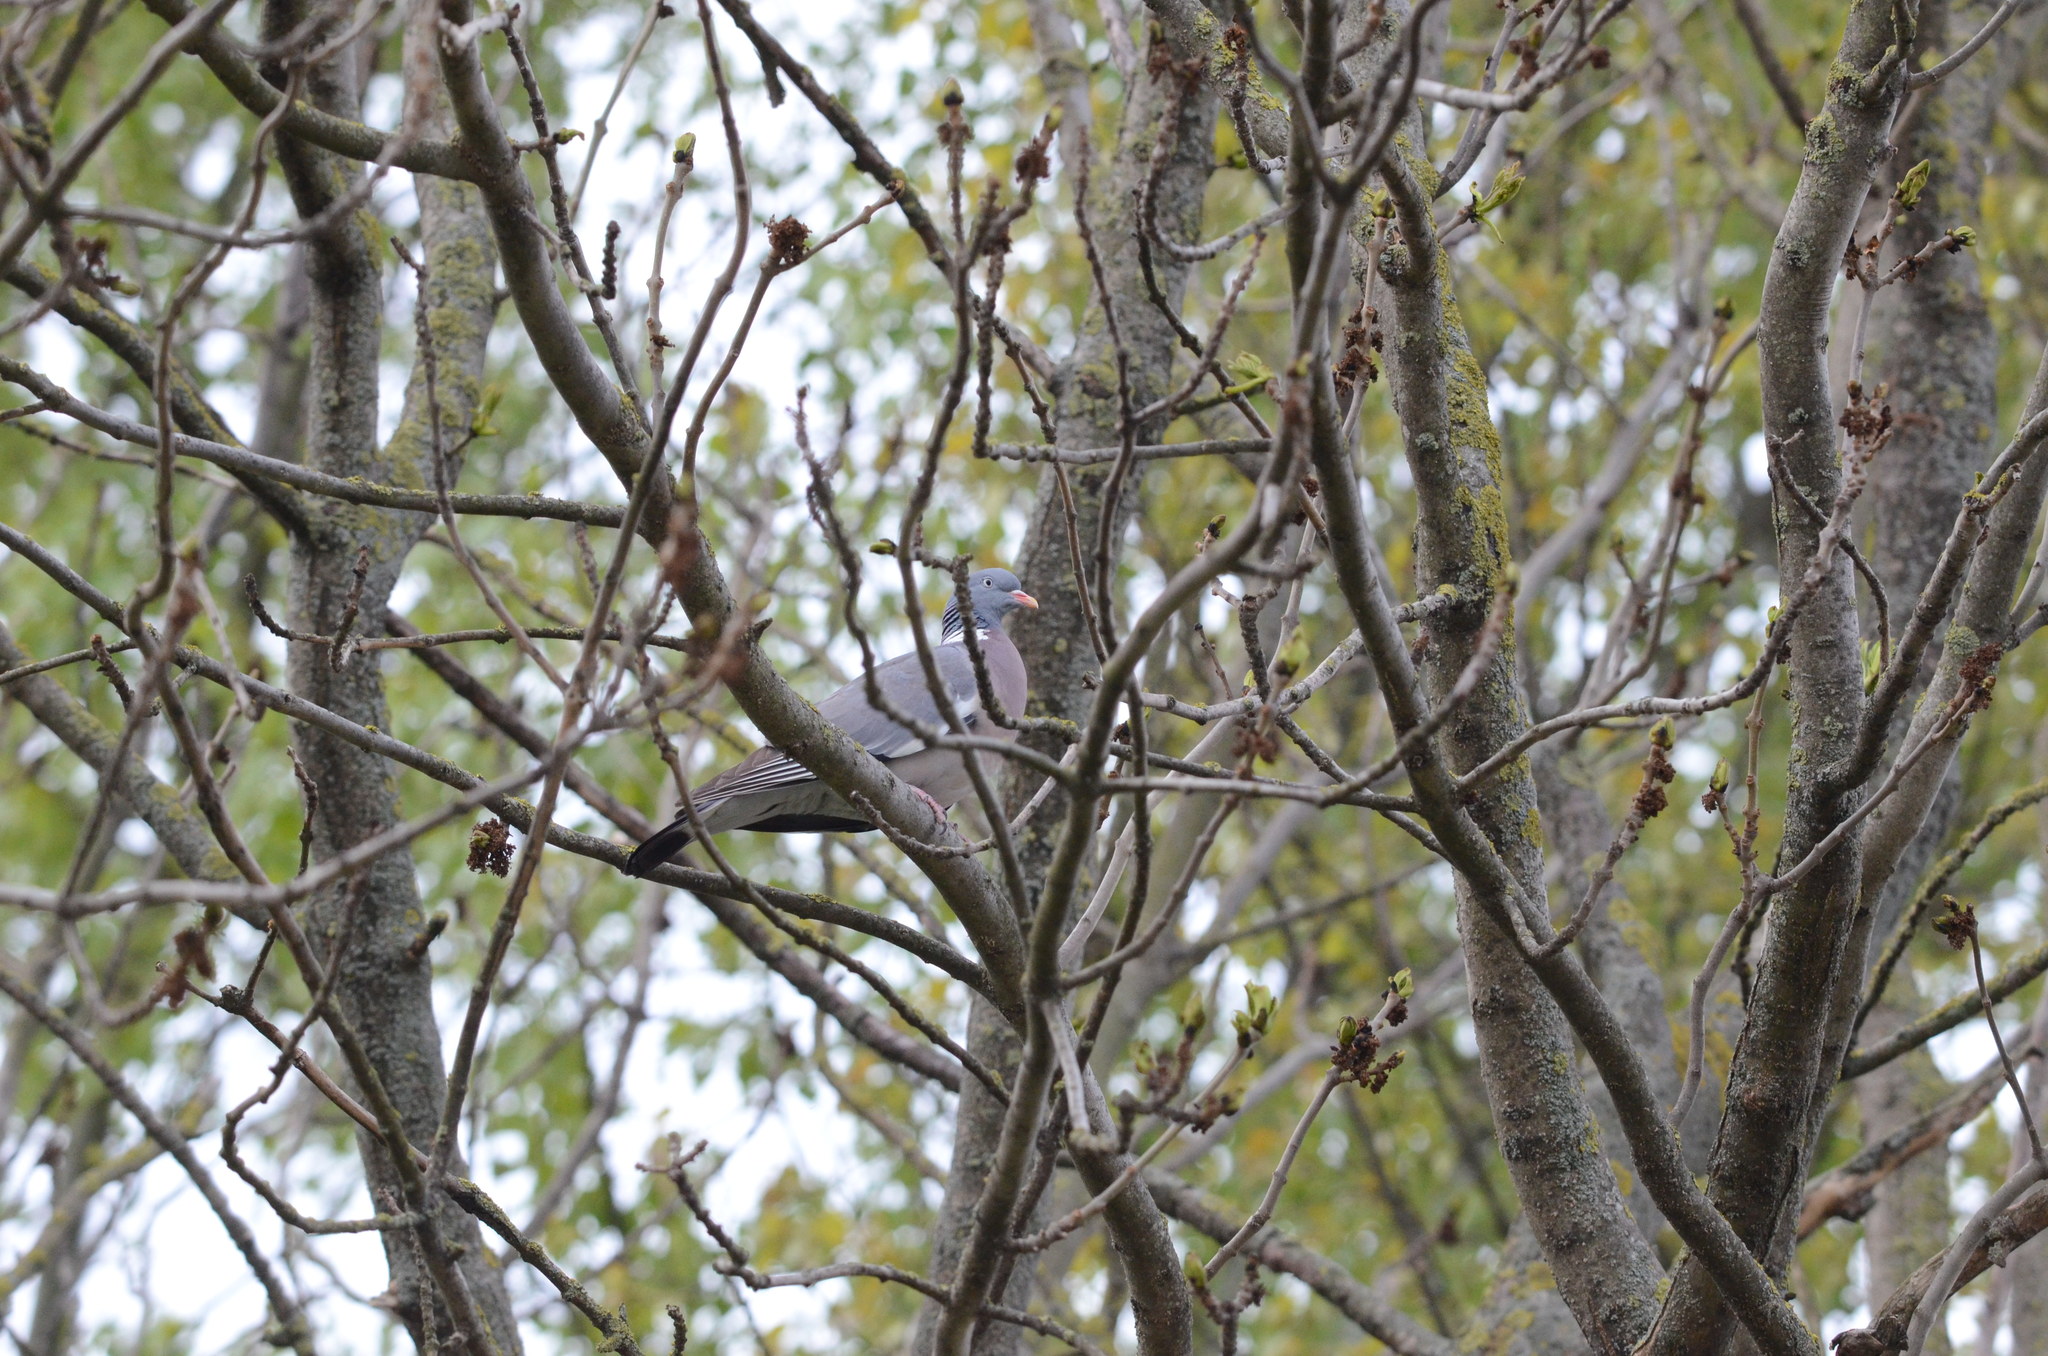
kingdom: Animalia
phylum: Chordata
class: Aves
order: Columbiformes
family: Columbidae
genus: Columba
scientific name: Columba palumbus
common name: Common wood pigeon
